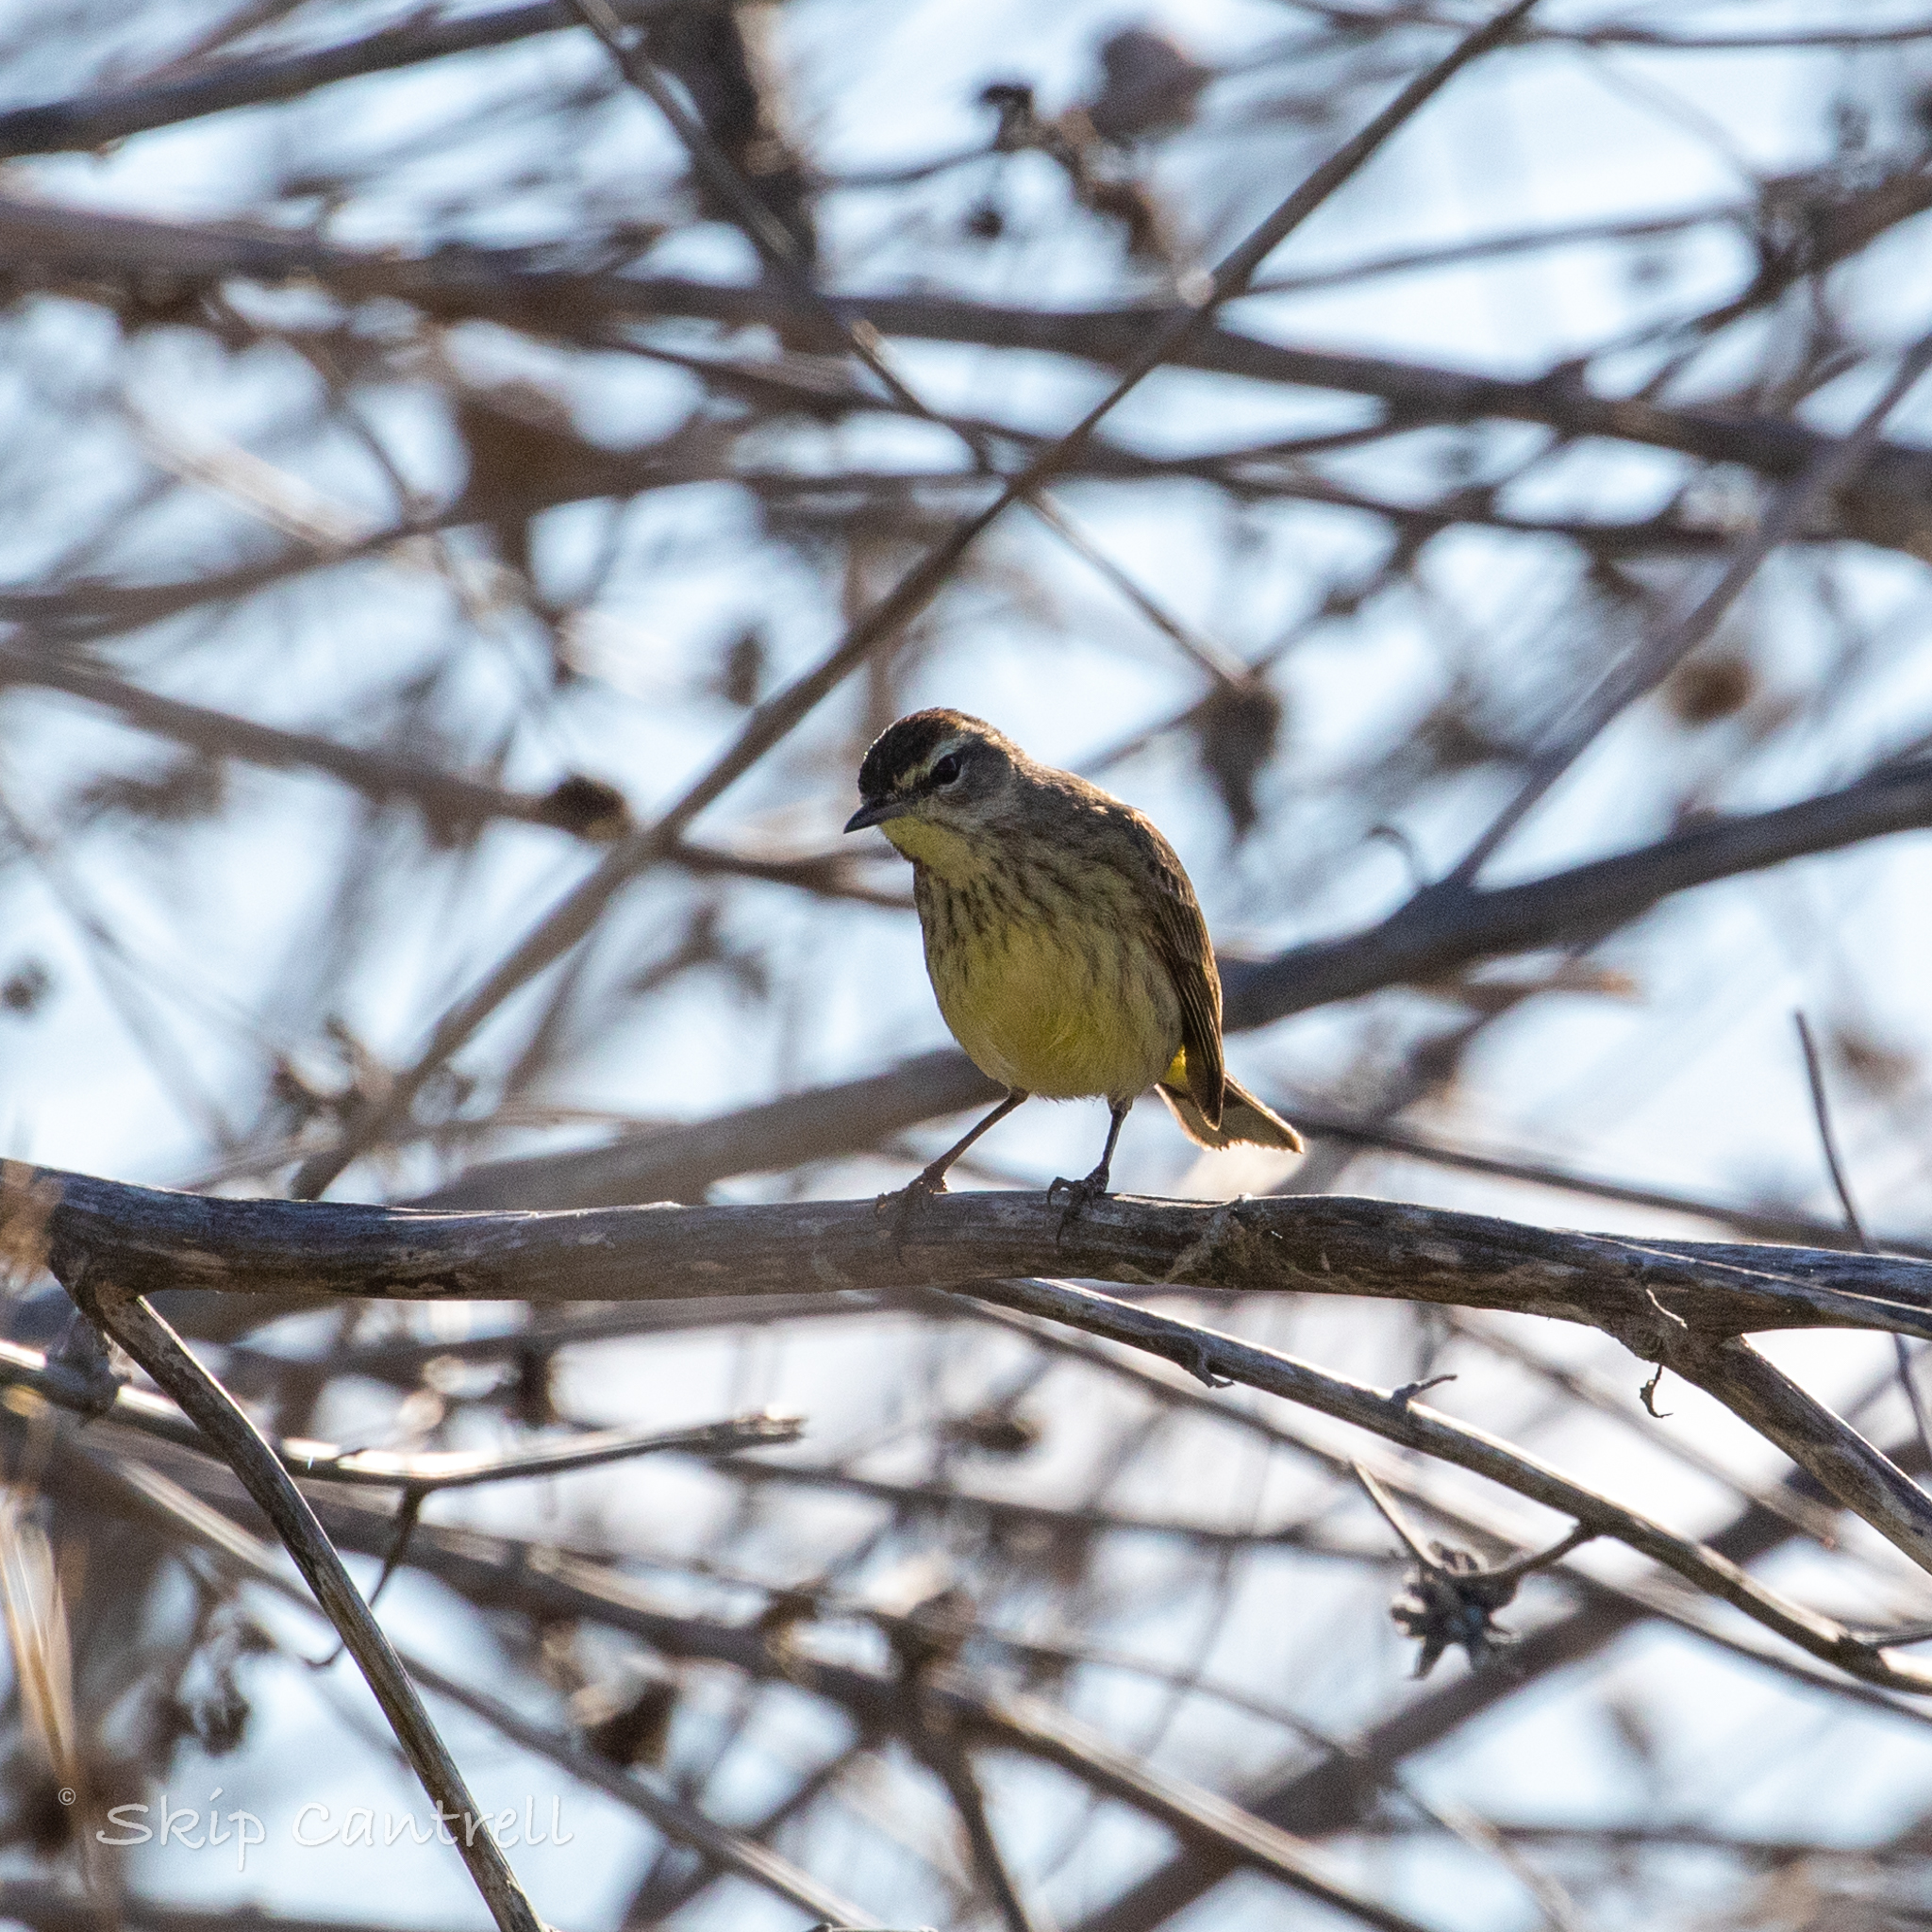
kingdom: Animalia
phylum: Chordata
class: Aves
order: Passeriformes
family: Parulidae
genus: Setophaga
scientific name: Setophaga palmarum
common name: Palm warbler
